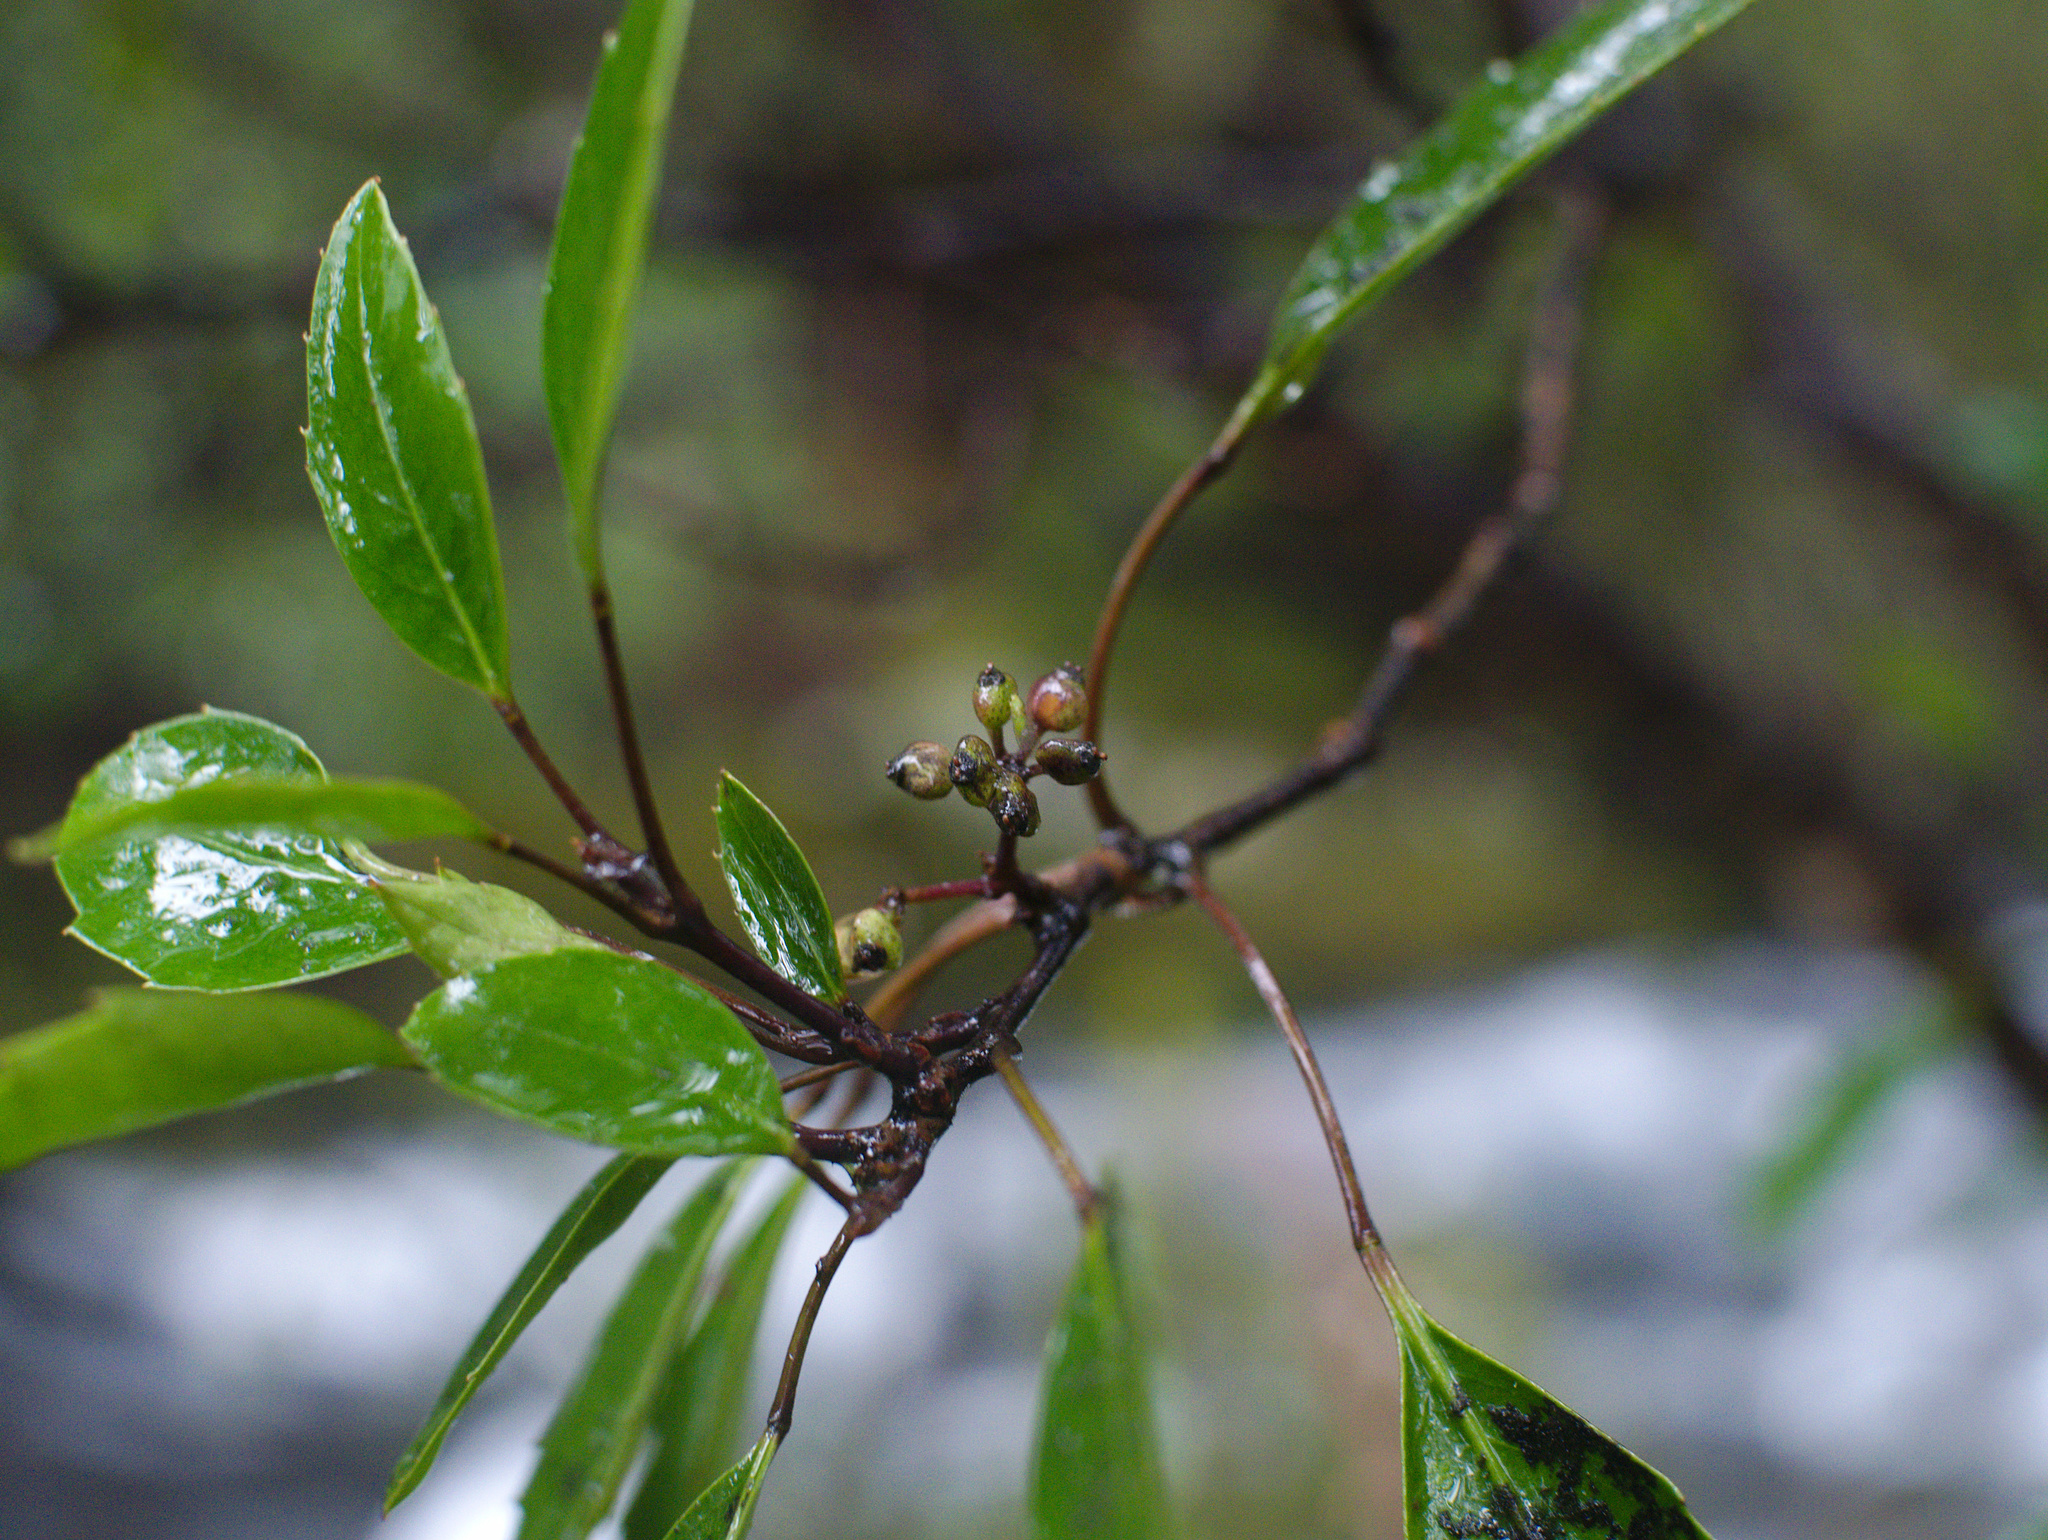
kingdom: Plantae
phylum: Tracheophyta
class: Magnoliopsida
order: Apiales
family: Araliaceae
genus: Raukaua
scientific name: Raukaua simplex
